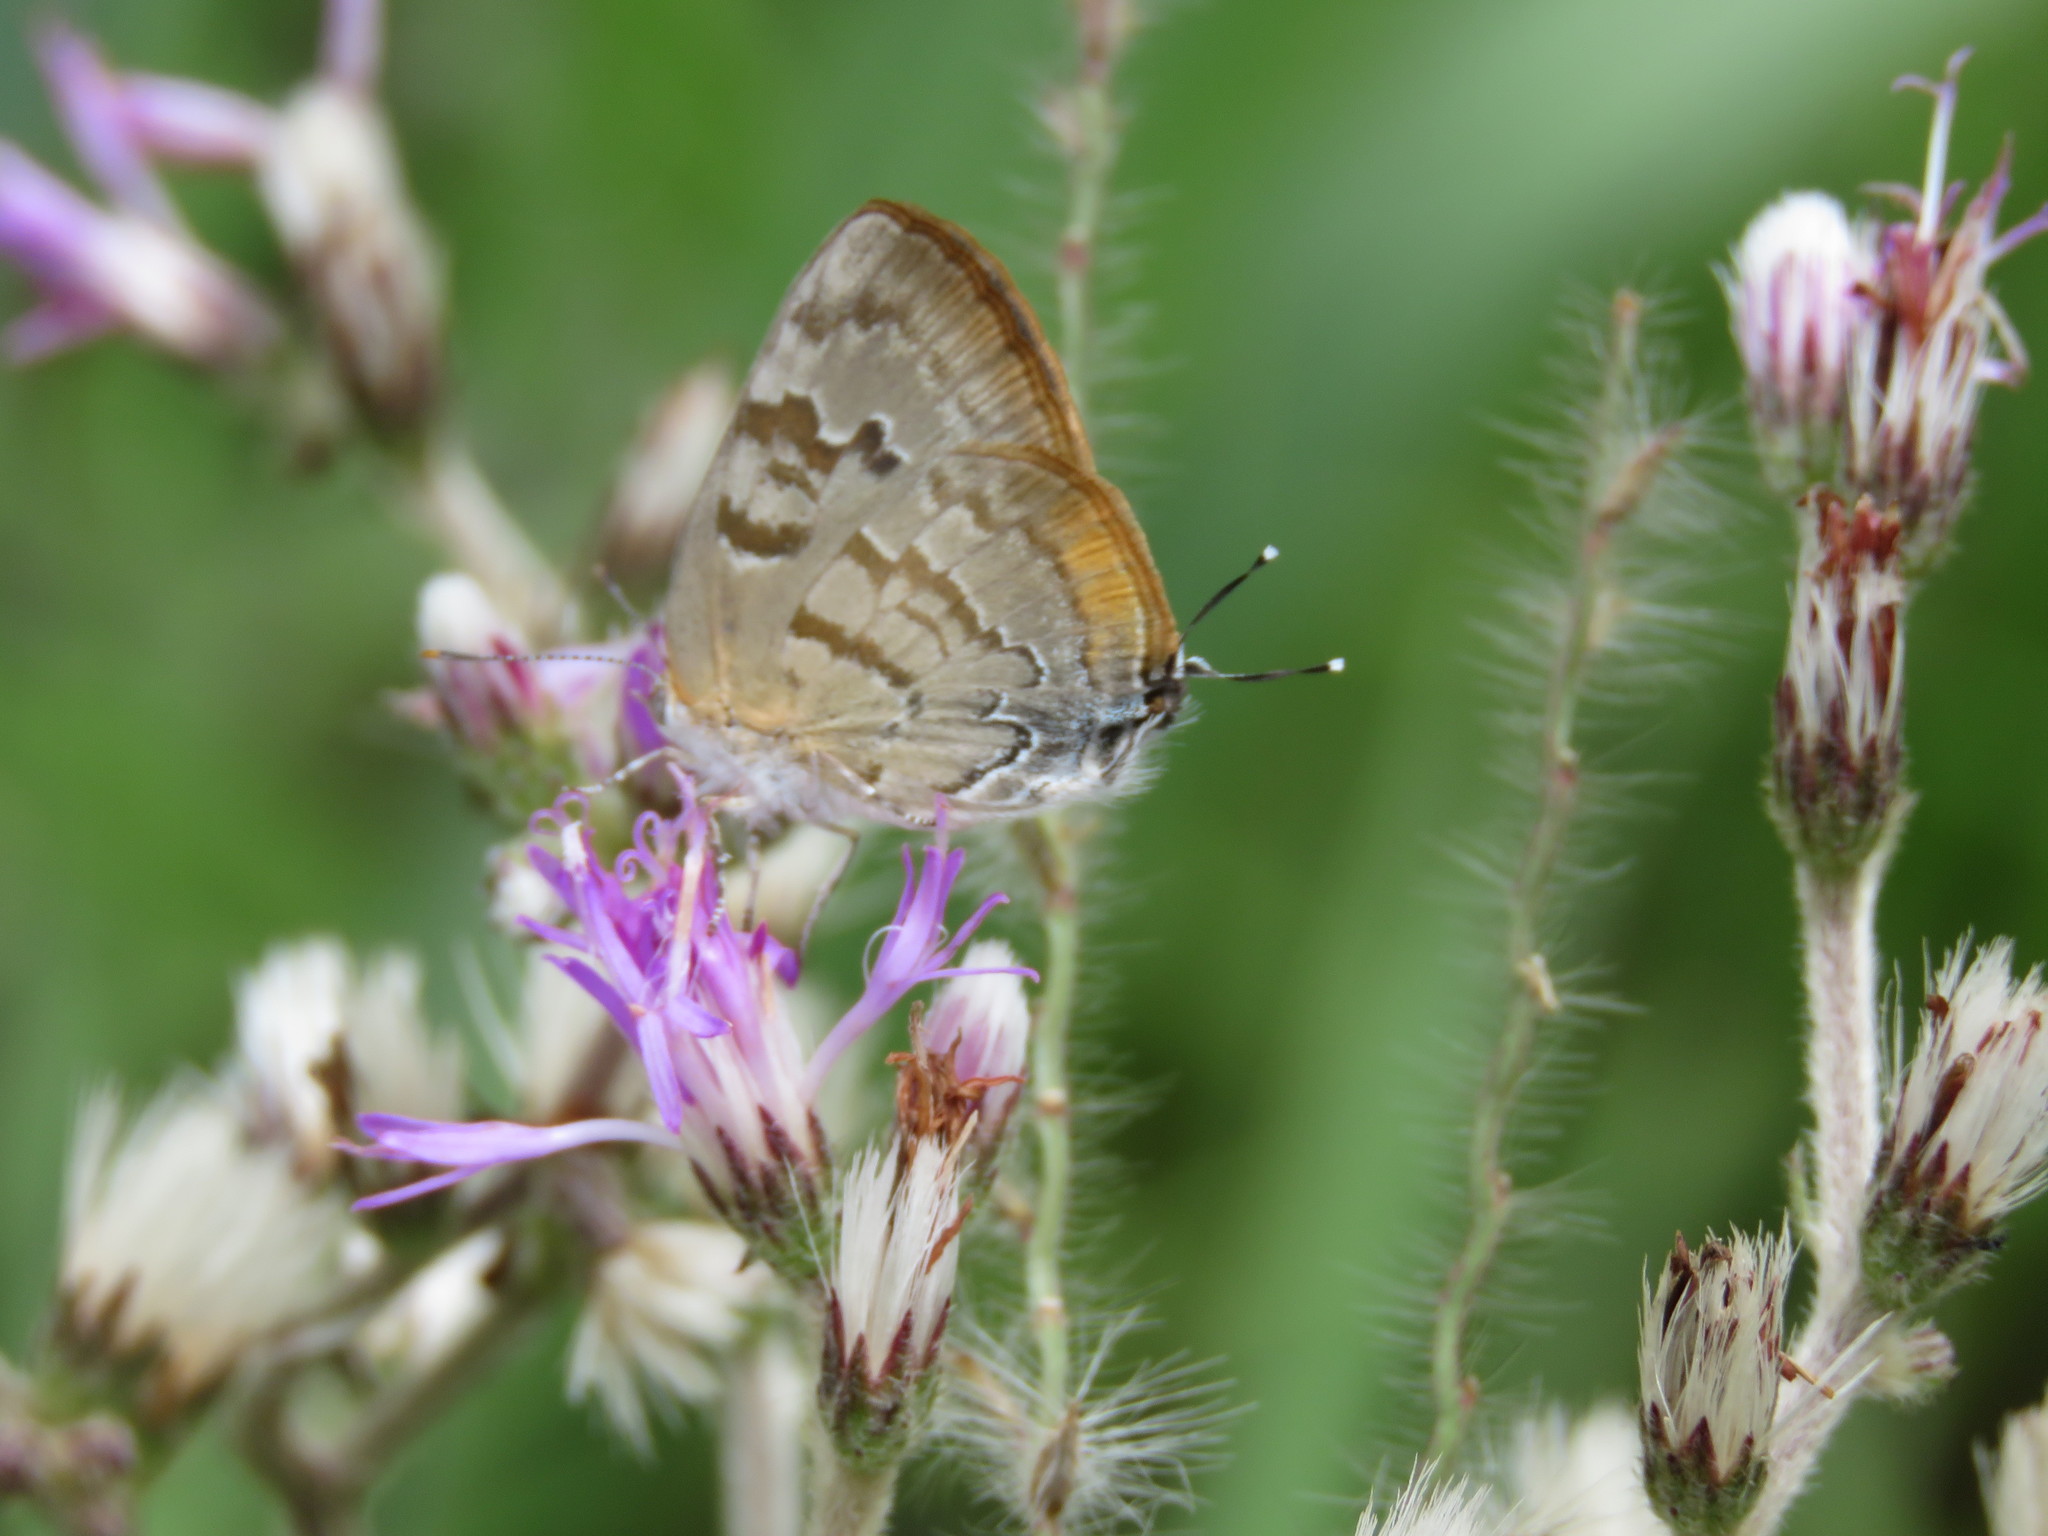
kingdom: Animalia
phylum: Arthropoda
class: Insecta
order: Lepidoptera
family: Lycaenidae
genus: Rekoa
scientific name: Rekoa palegon
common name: Gold-bordered hairstreak
